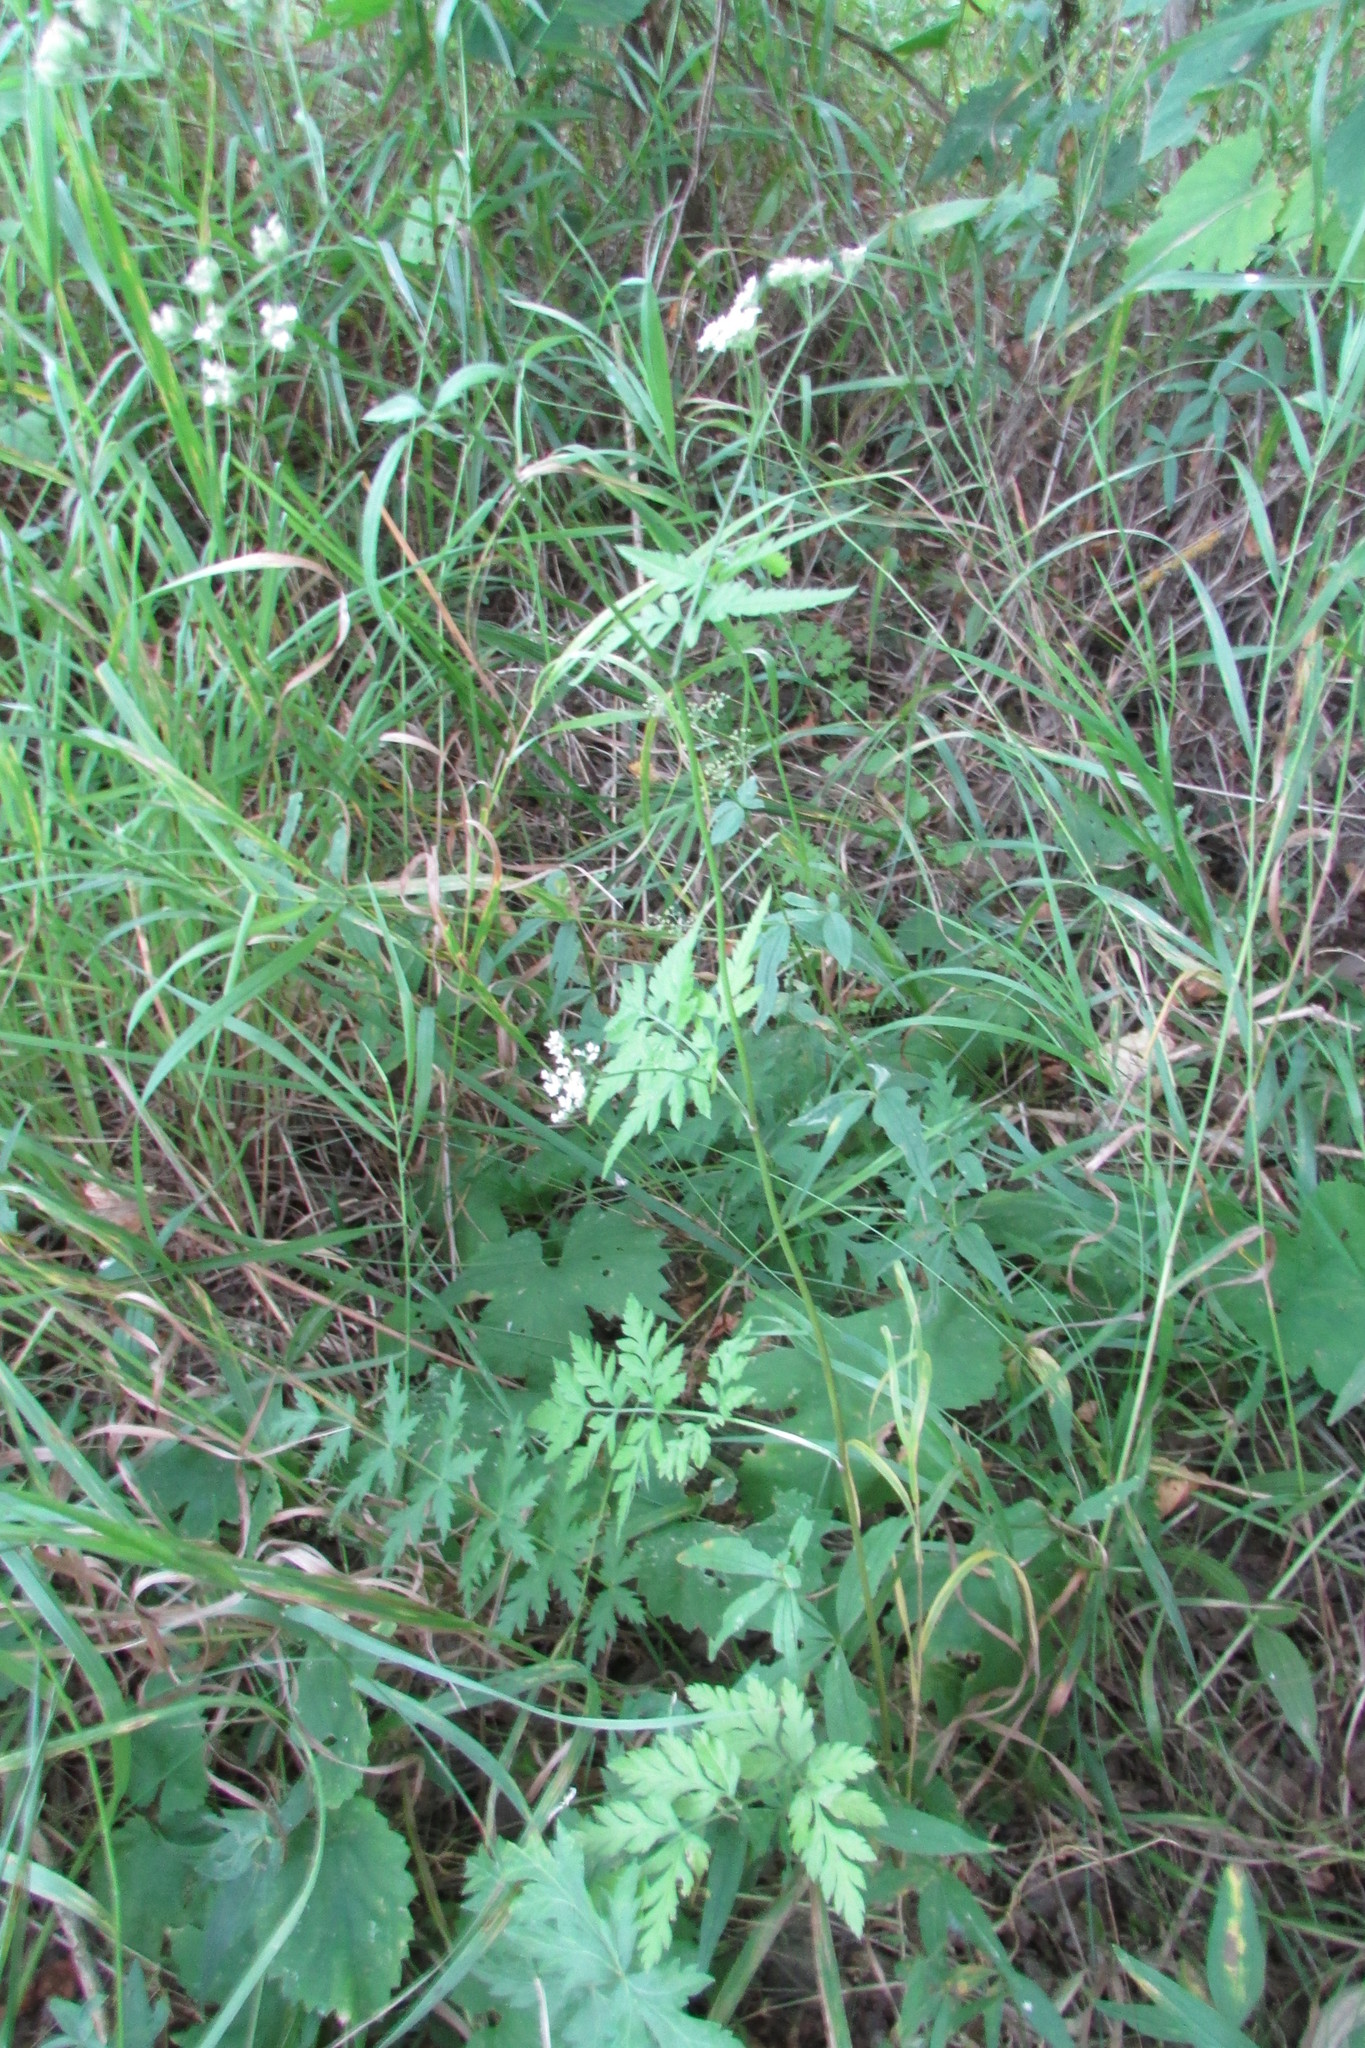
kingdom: Plantae
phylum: Tracheophyta
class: Magnoliopsida
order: Apiales
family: Apiaceae
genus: Torilis
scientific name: Torilis japonica
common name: Upright hedge-parsley
